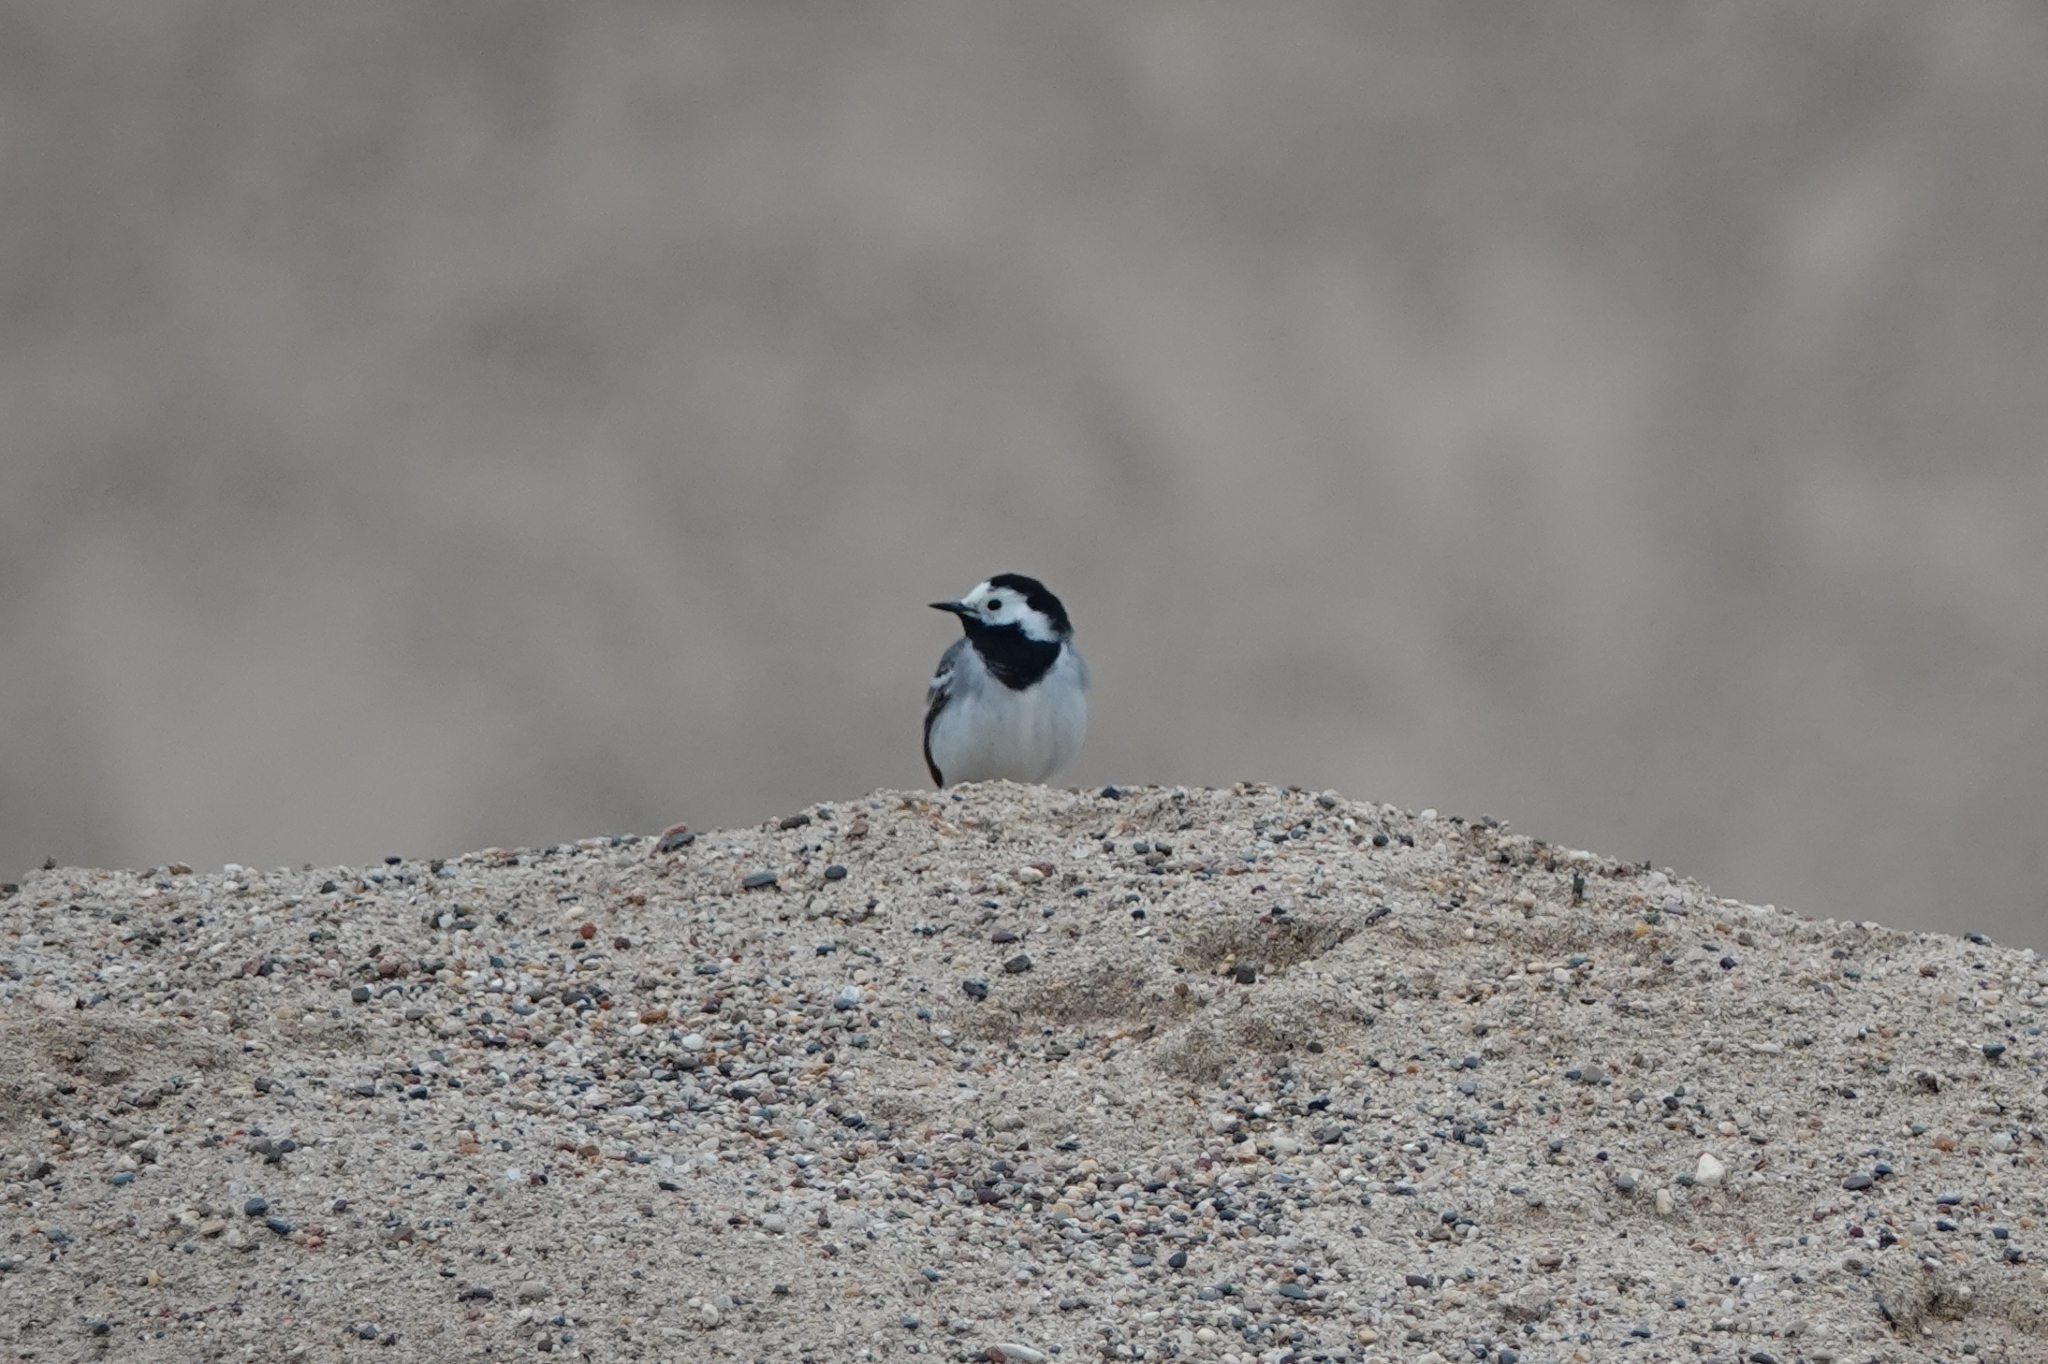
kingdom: Animalia
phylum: Chordata
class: Aves
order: Passeriformes
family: Motacillidae
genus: Motacilla
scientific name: Motacilla alba
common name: White wagtail
